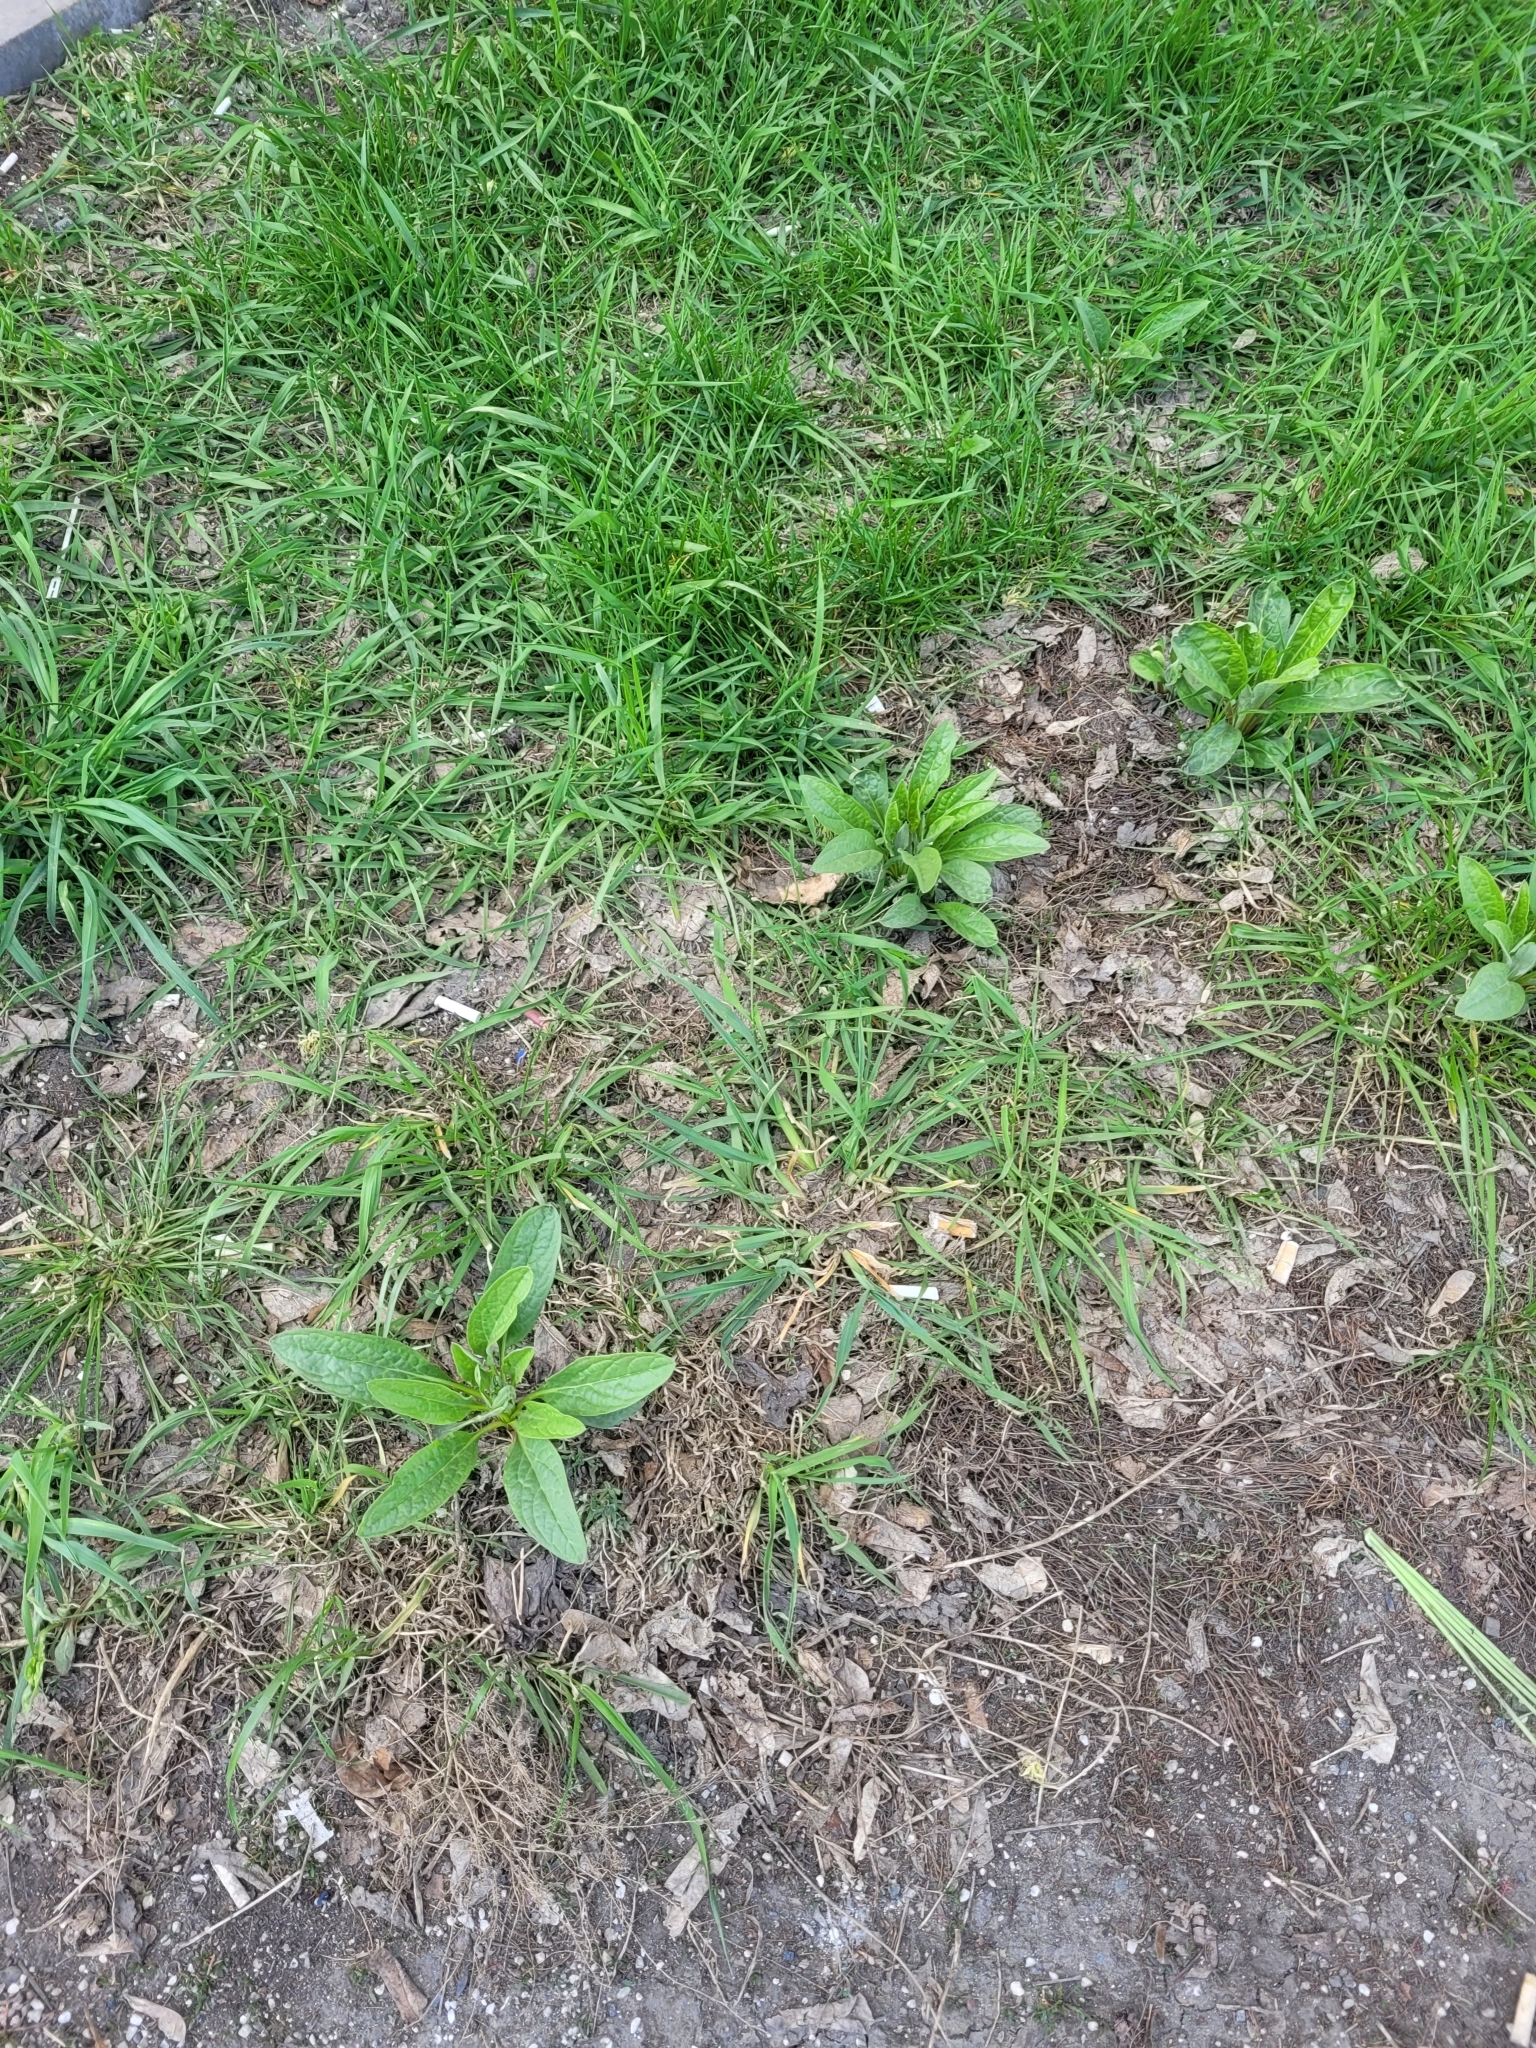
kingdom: Plantae
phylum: Tracheophyta
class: Magnoliopsida
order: Boraginales
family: Boraginaceae
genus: Cynoglossum
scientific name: Cynoglossum officinale
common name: Hound's-tongue
